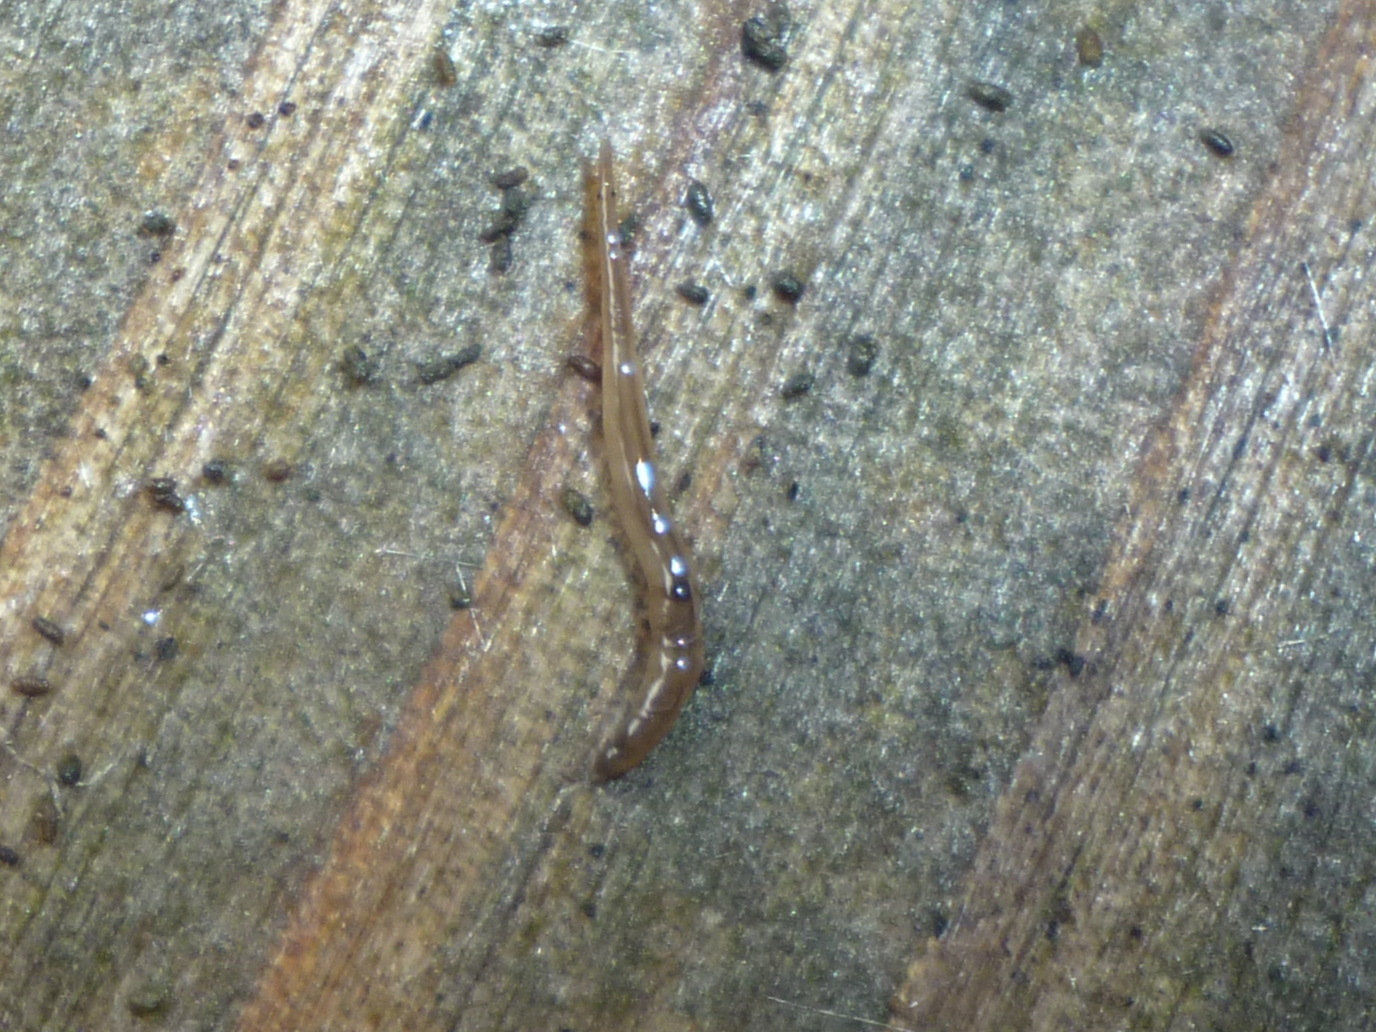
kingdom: Animalia
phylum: Platyhelminthes
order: Tricladida
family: Geoplanidae
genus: Rhynchodemus
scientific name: Rhynchodemus sylvaticus
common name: A flatworm
